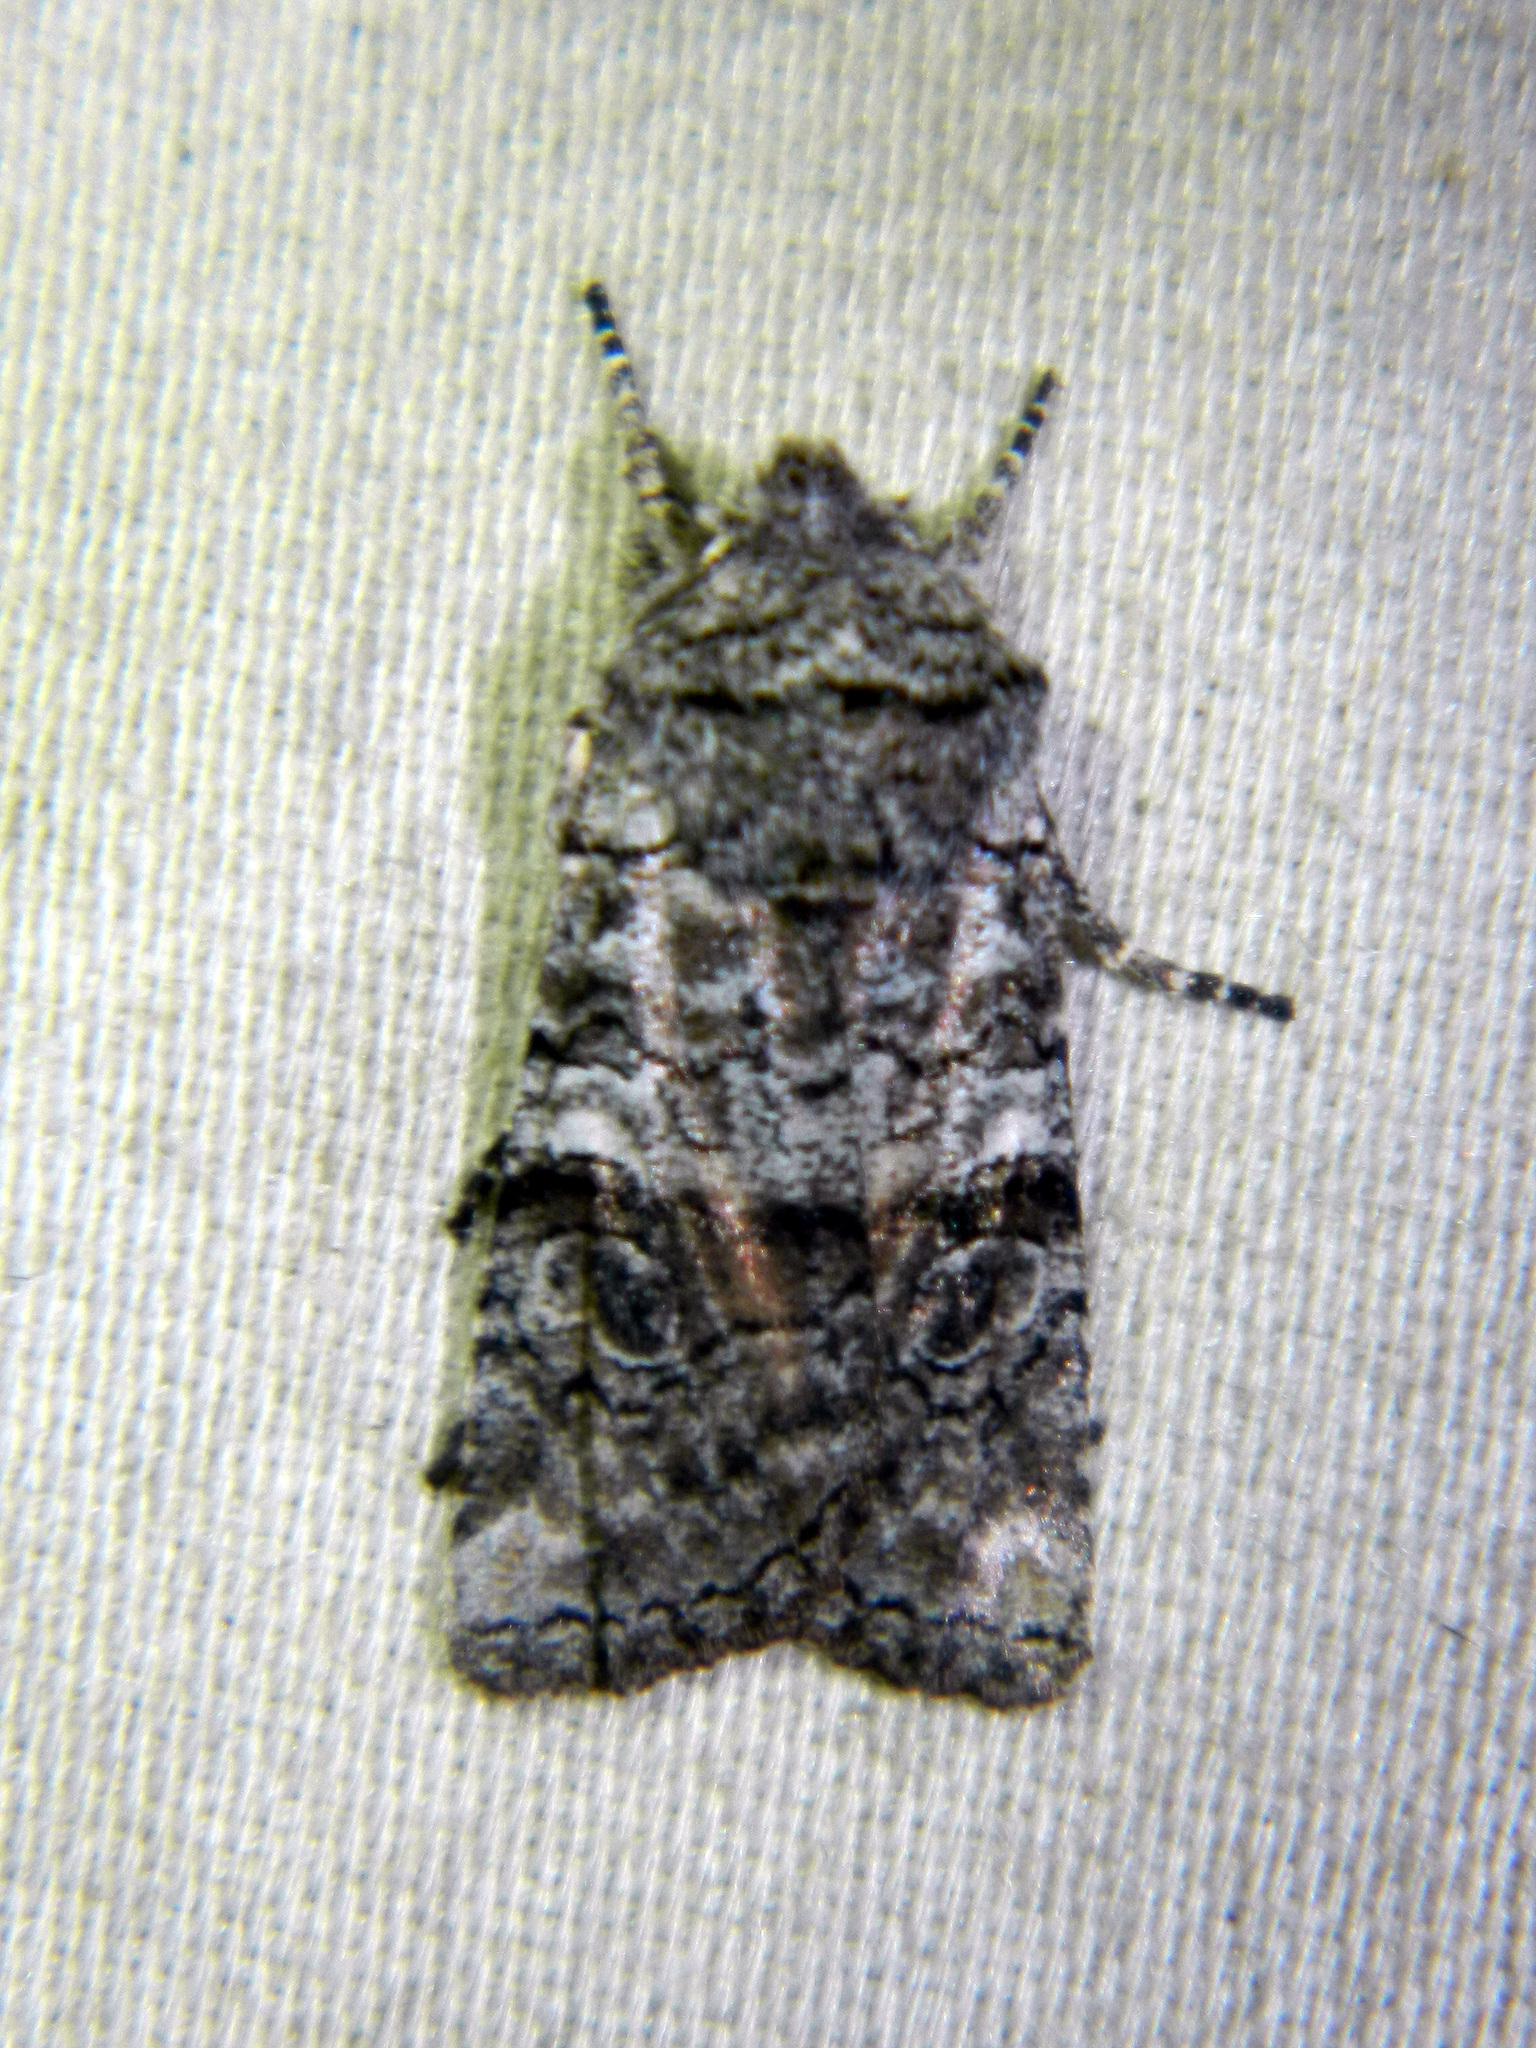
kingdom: Animalia
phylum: Arthropoda
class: Insecta
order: Lepidoptera
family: Noctuidae
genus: Litholomia
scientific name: Litholomia napaea
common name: False pinion moth
